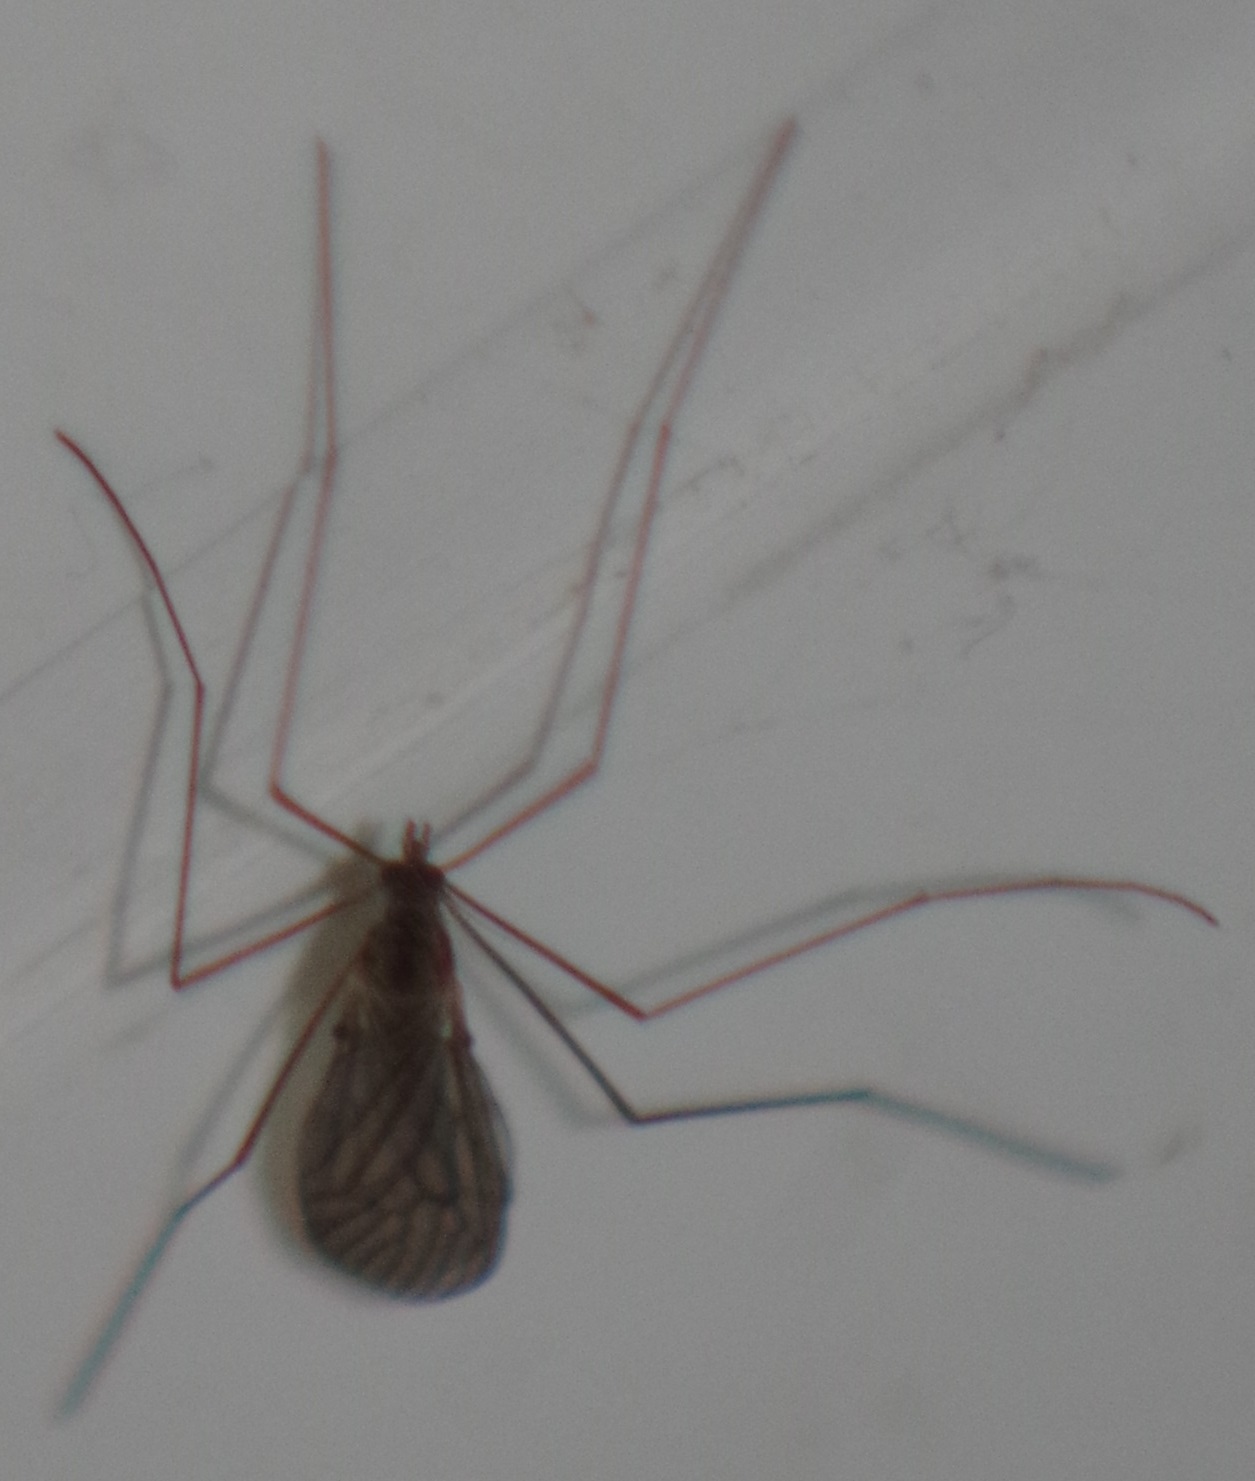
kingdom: Animalia
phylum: Arthropoda
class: Insecta
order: Diptera
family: Trichoceridae
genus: Trichocera
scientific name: Trichocera
